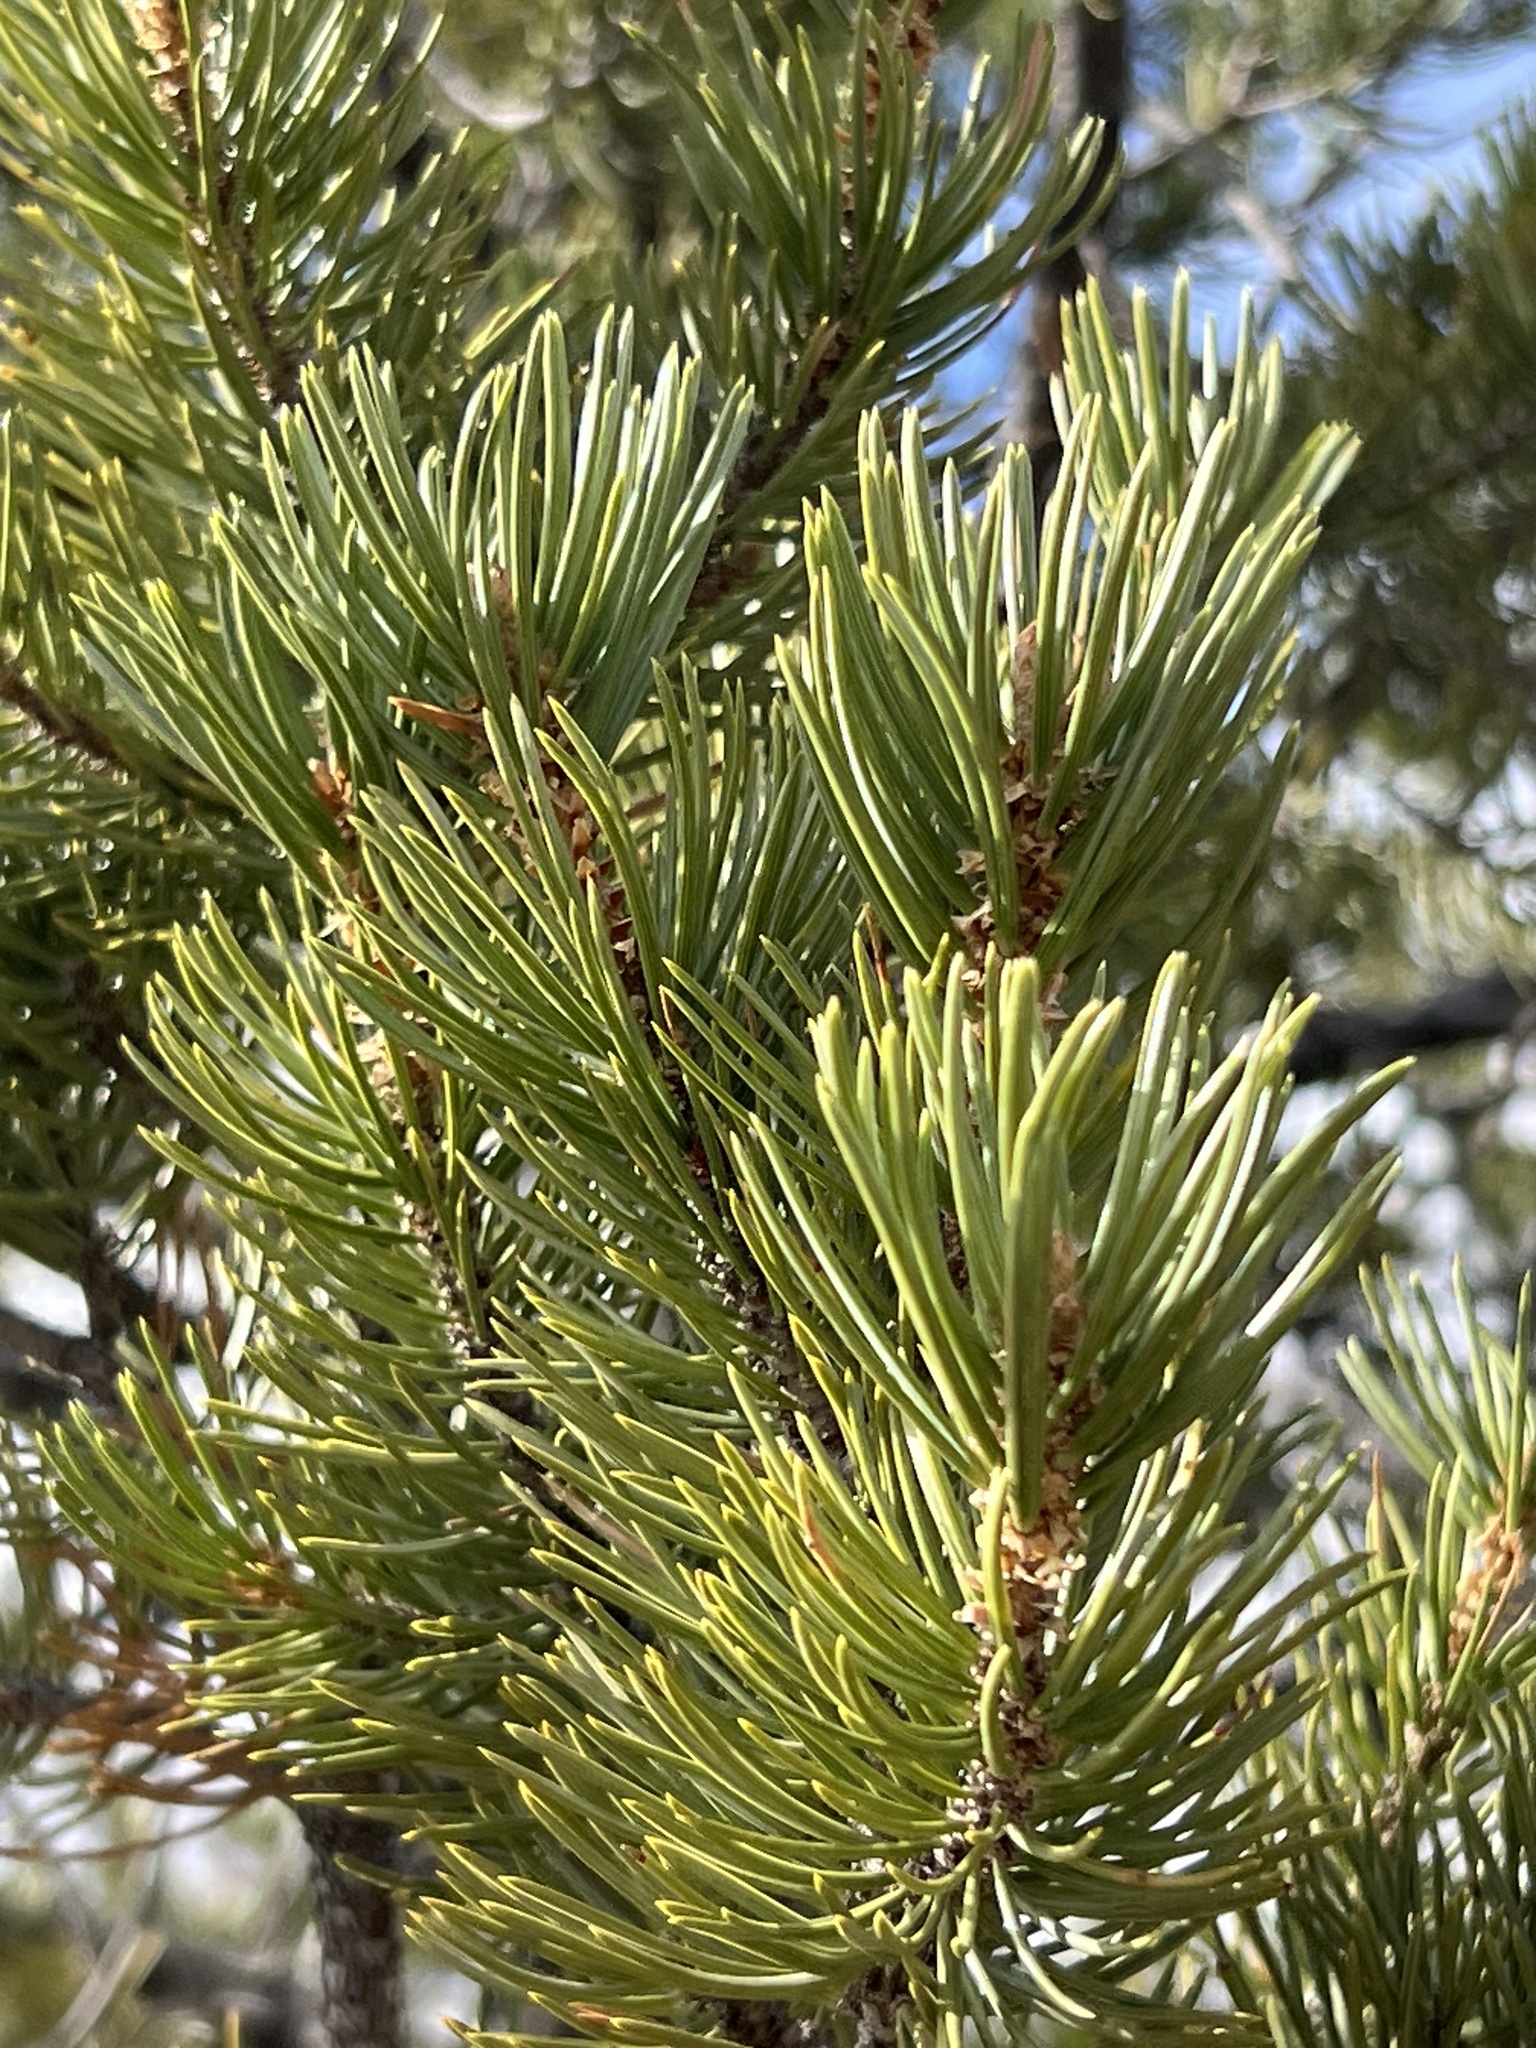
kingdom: Plantae
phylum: Tracheophyta
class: Pinopsida
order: Pinales
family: Pinaceae
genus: Pinus
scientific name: Pinus edulis
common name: Colorado pinyon
